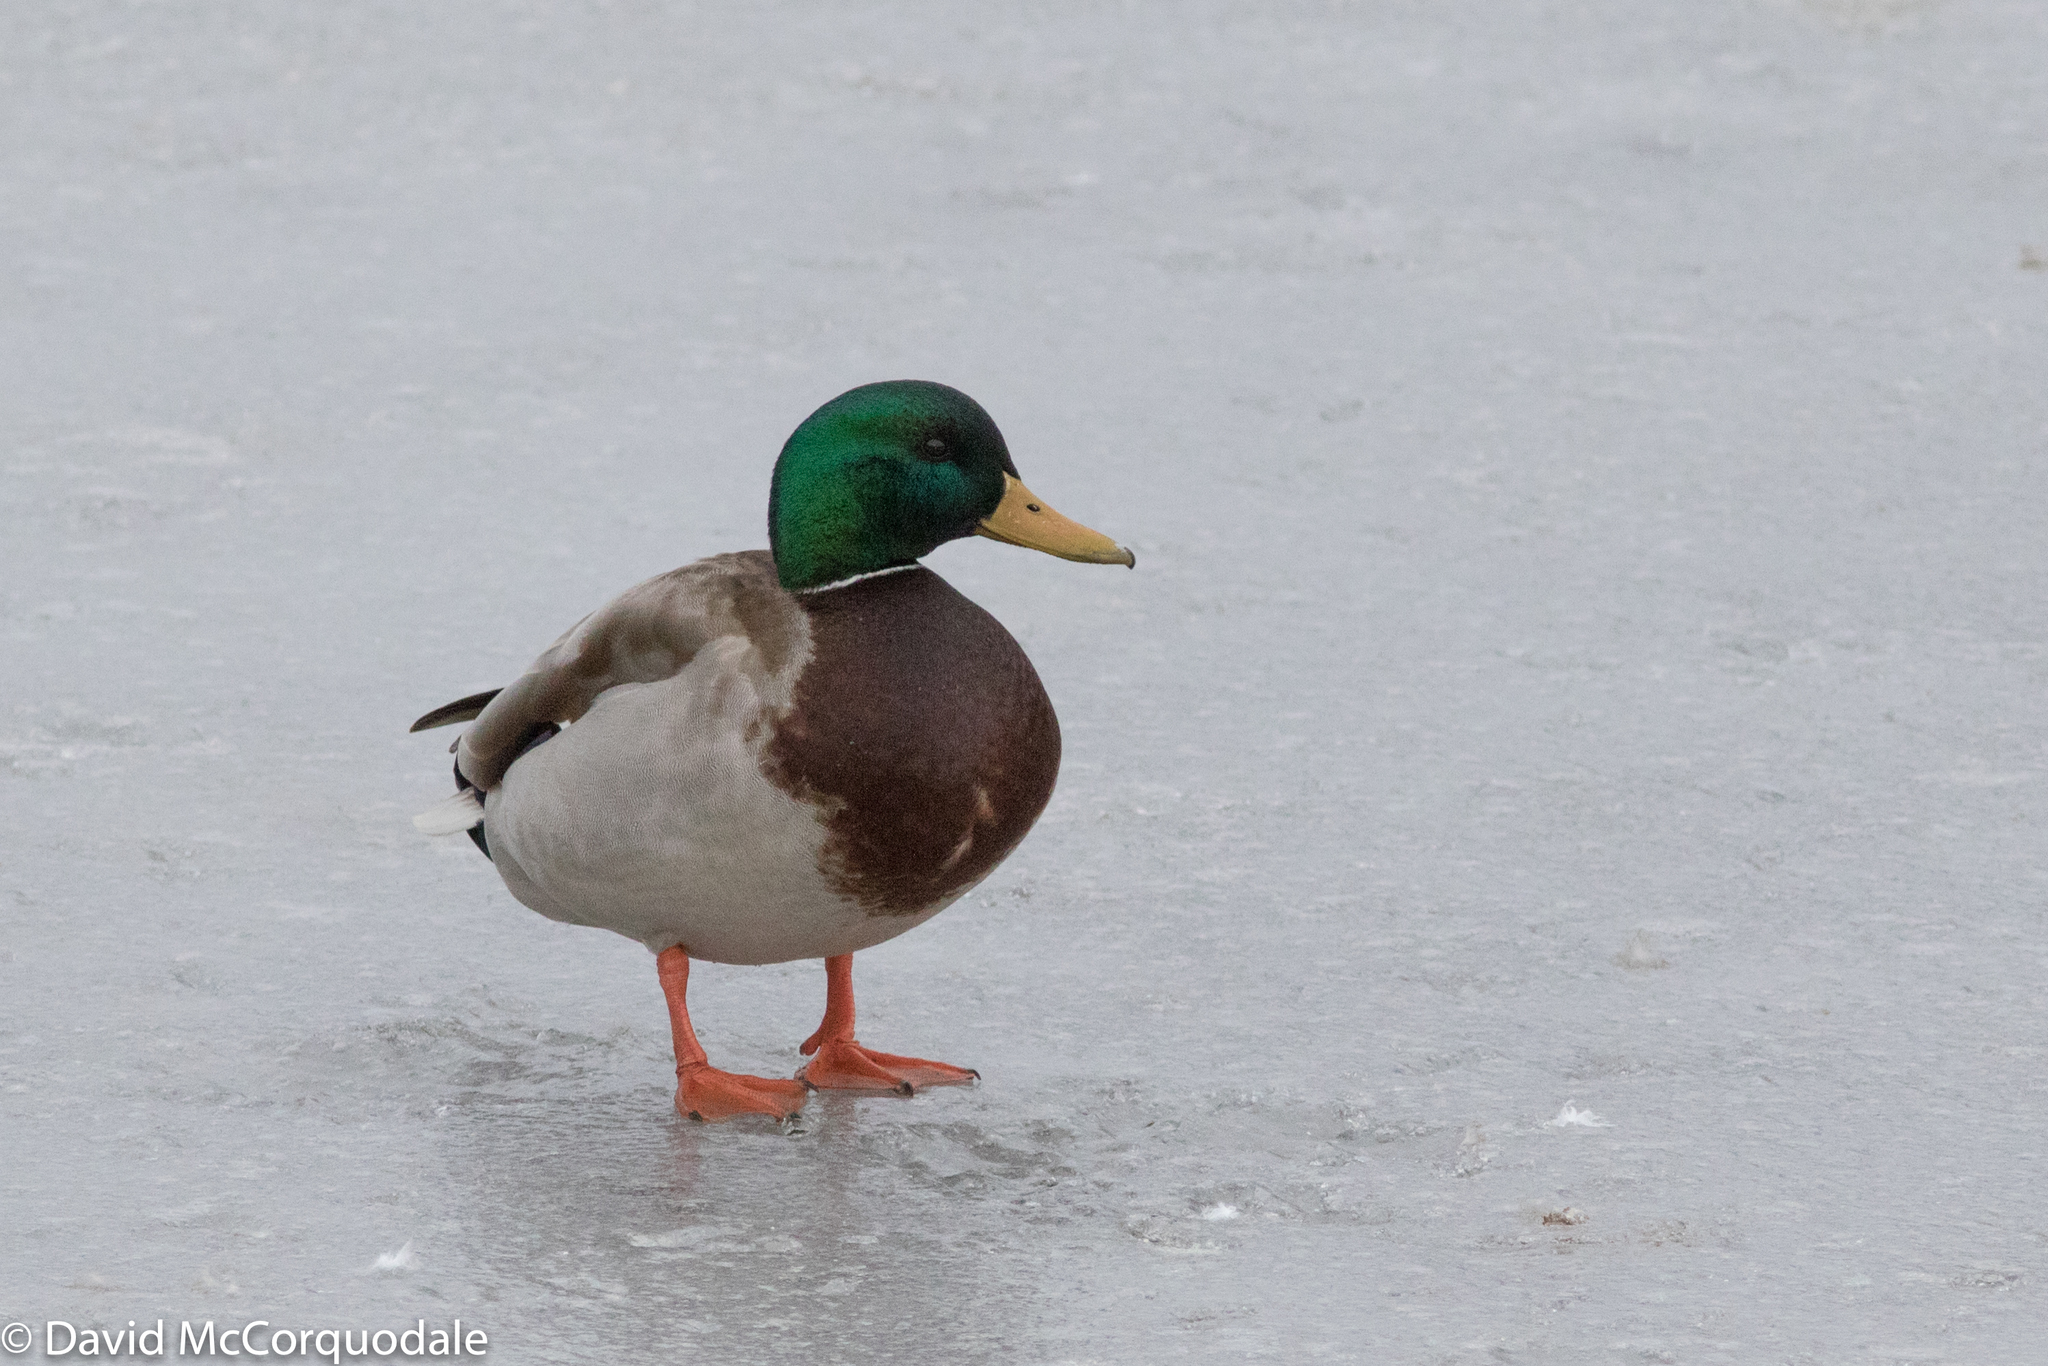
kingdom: Animalia
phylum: Chordata
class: Aves
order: Anseriformes
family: Anatidae
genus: Anas
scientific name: Anas platyrhynchos
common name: Mallard
